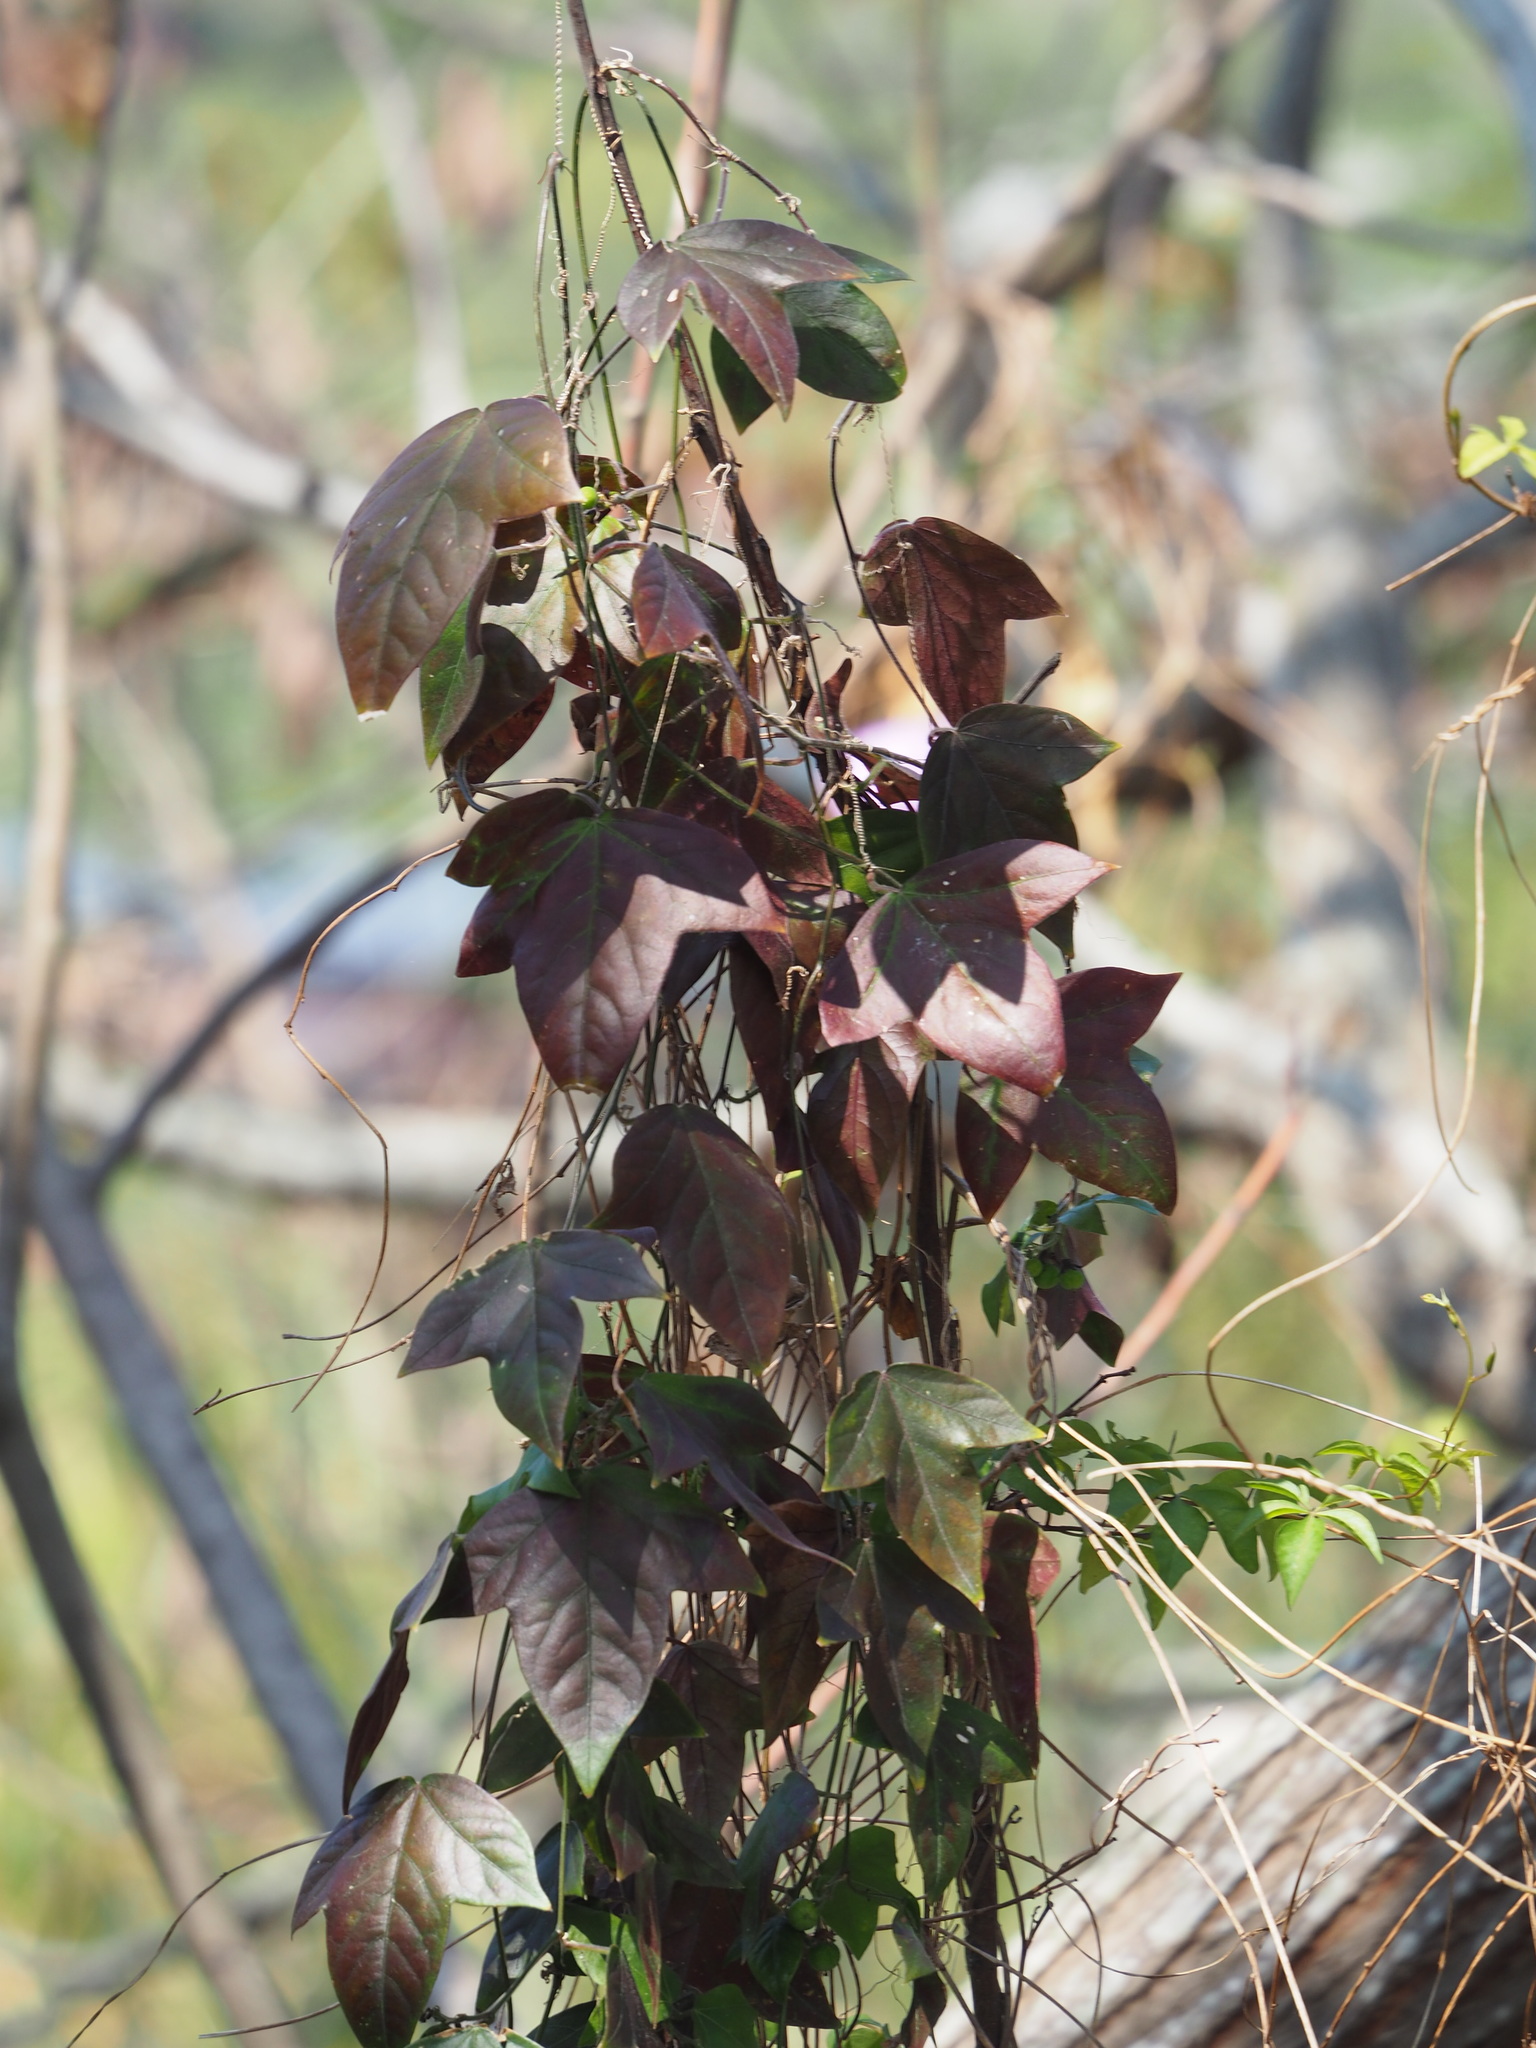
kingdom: Plantae
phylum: Tracheophyta
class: Magnoliopsida
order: Malpighiales
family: Passifloraceae
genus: Passiflora
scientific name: Passiflora suberosa
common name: Wild passionfruit
